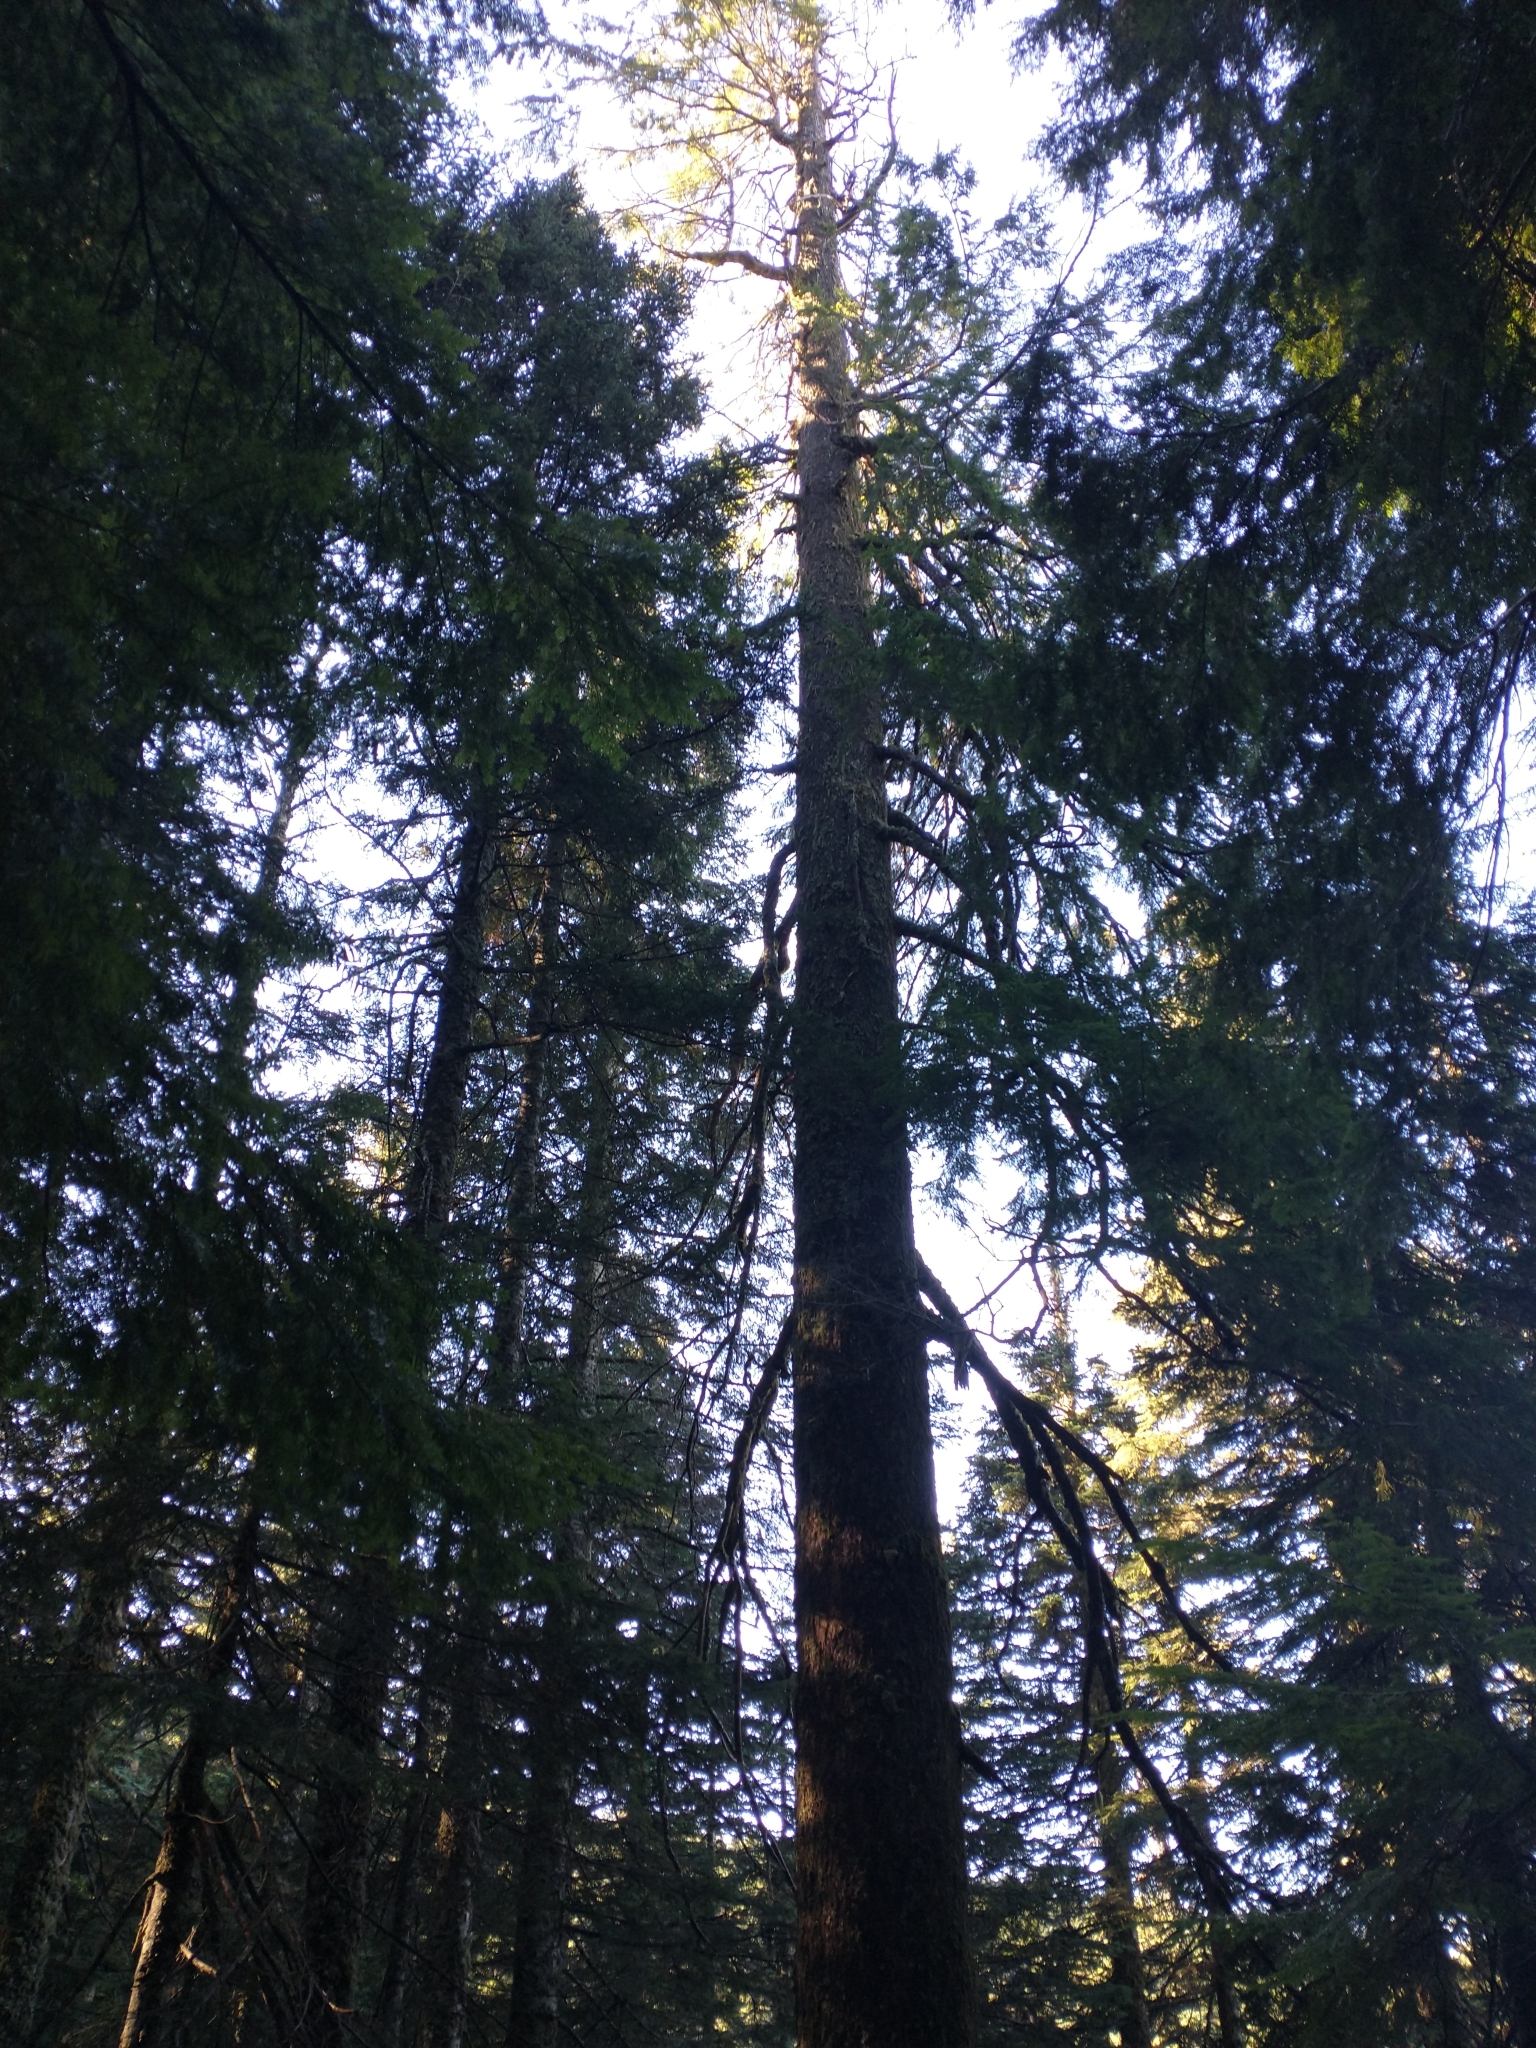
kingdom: Plantae
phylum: Tracheophyta
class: Pinopsida
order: Pinales
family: Pinaceae
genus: Tsuga
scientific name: Tsuga heterophylla
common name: Western hemlock
